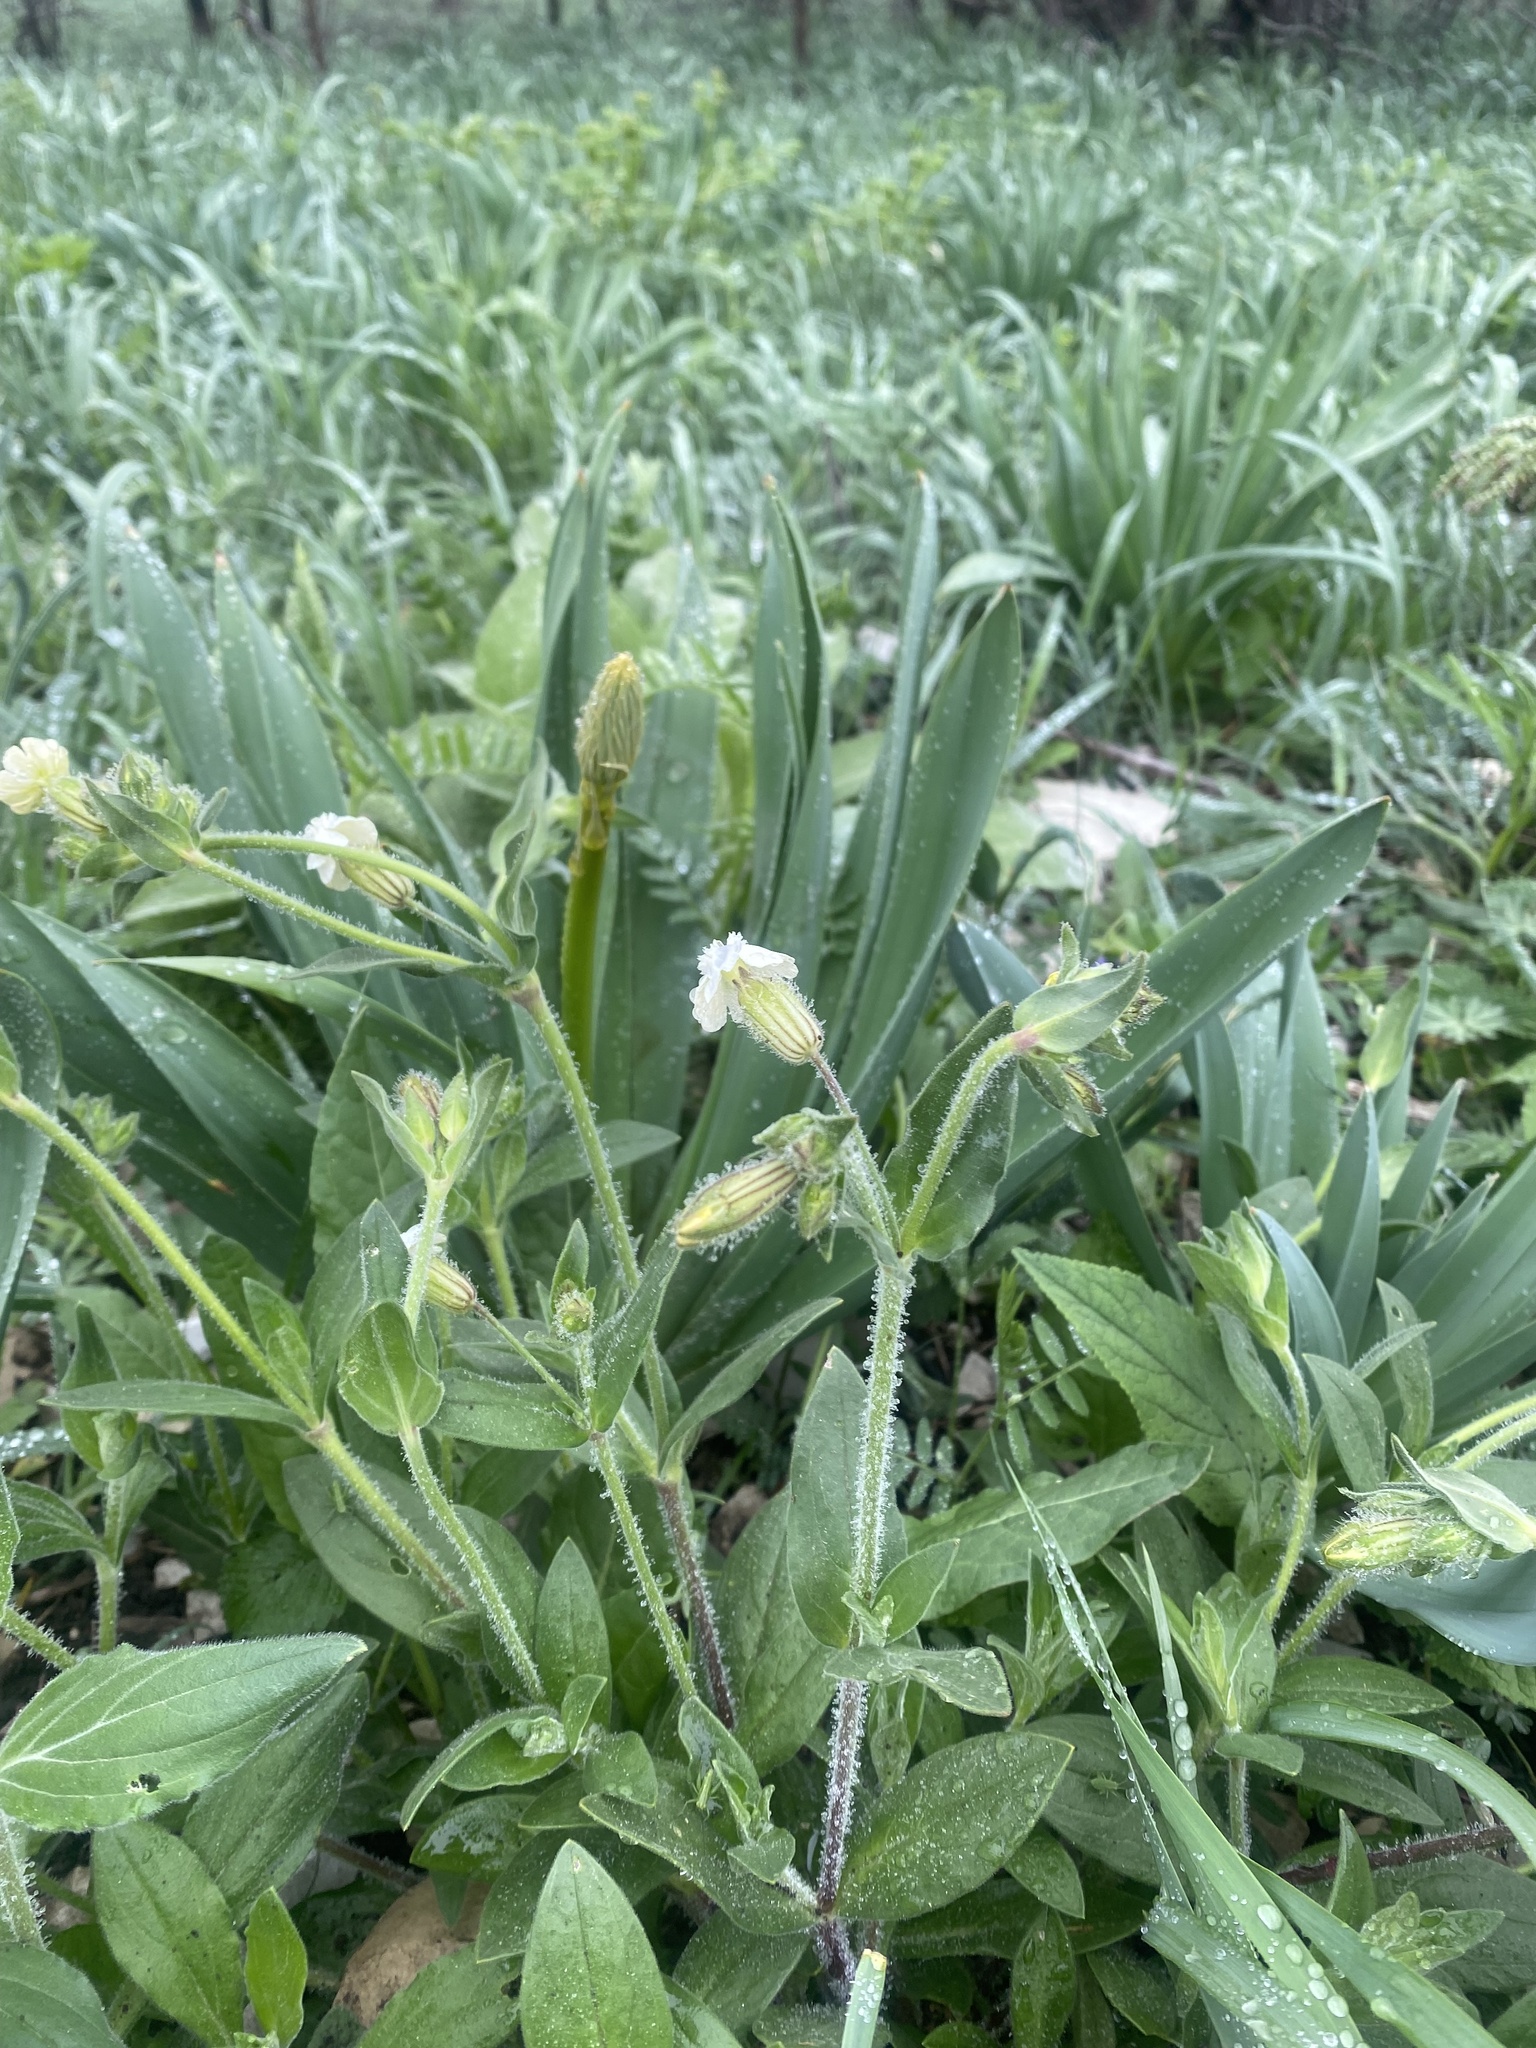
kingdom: Plantae
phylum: Tracheophyta
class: Magnoliopsida
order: Caryophyllales
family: Caryophyllaceae
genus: Silene
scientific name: Silene latifolia
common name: White campion
